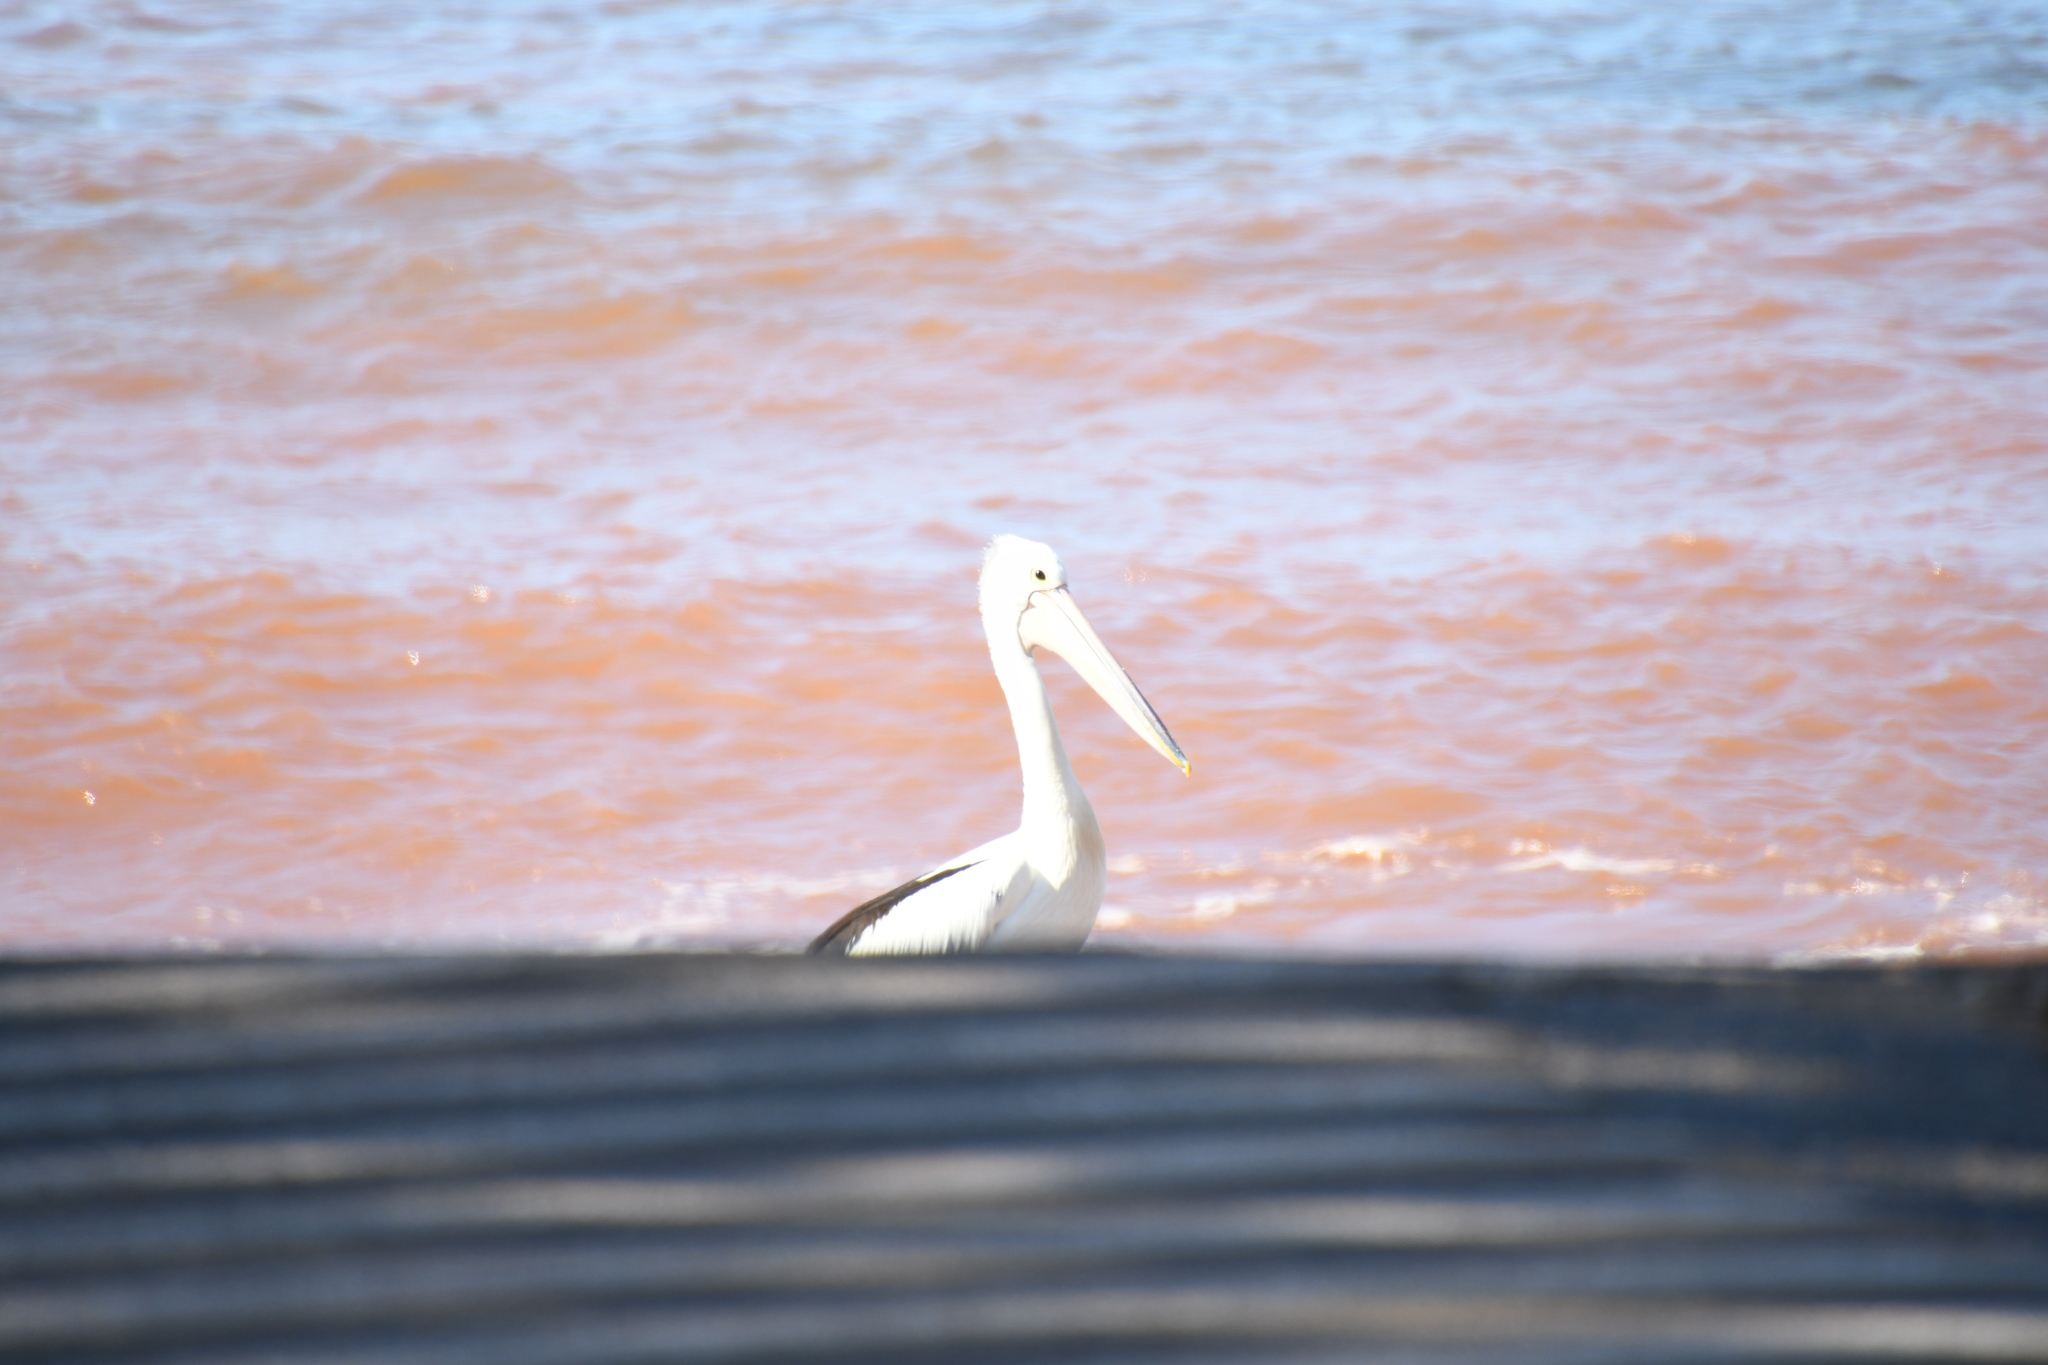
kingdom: Animalia
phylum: Chordata
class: Aves
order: Pelecaniformes
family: Pelecanidae
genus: Pelecanus
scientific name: Pelecanus conspicillatus
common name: Australian pelican
